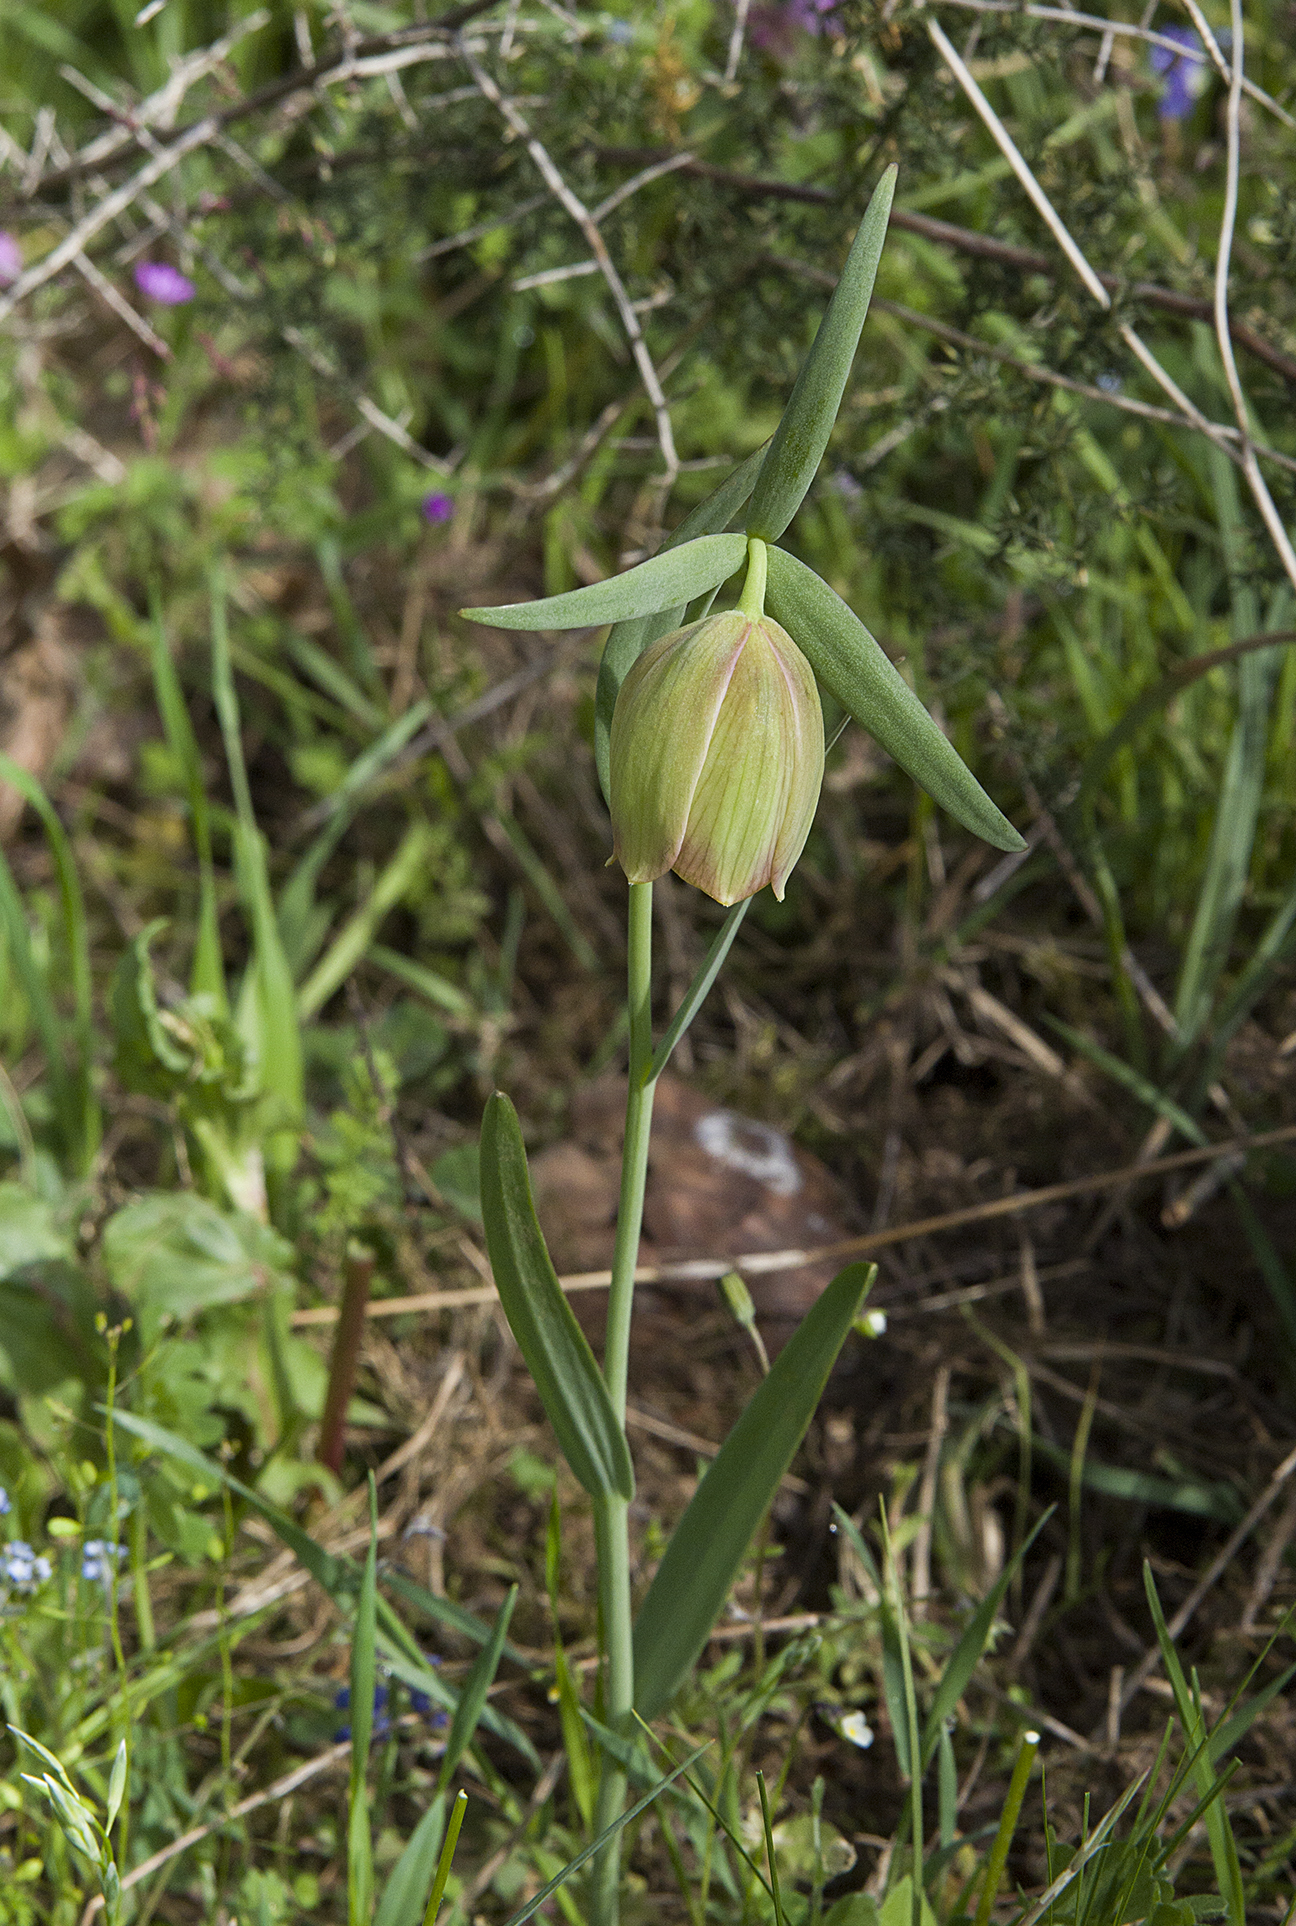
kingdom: Plantae
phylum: Tracheophyta
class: Liliopsida
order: Liliales
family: Liliaceae
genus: Fritillaria
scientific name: Fritillaria pontica
